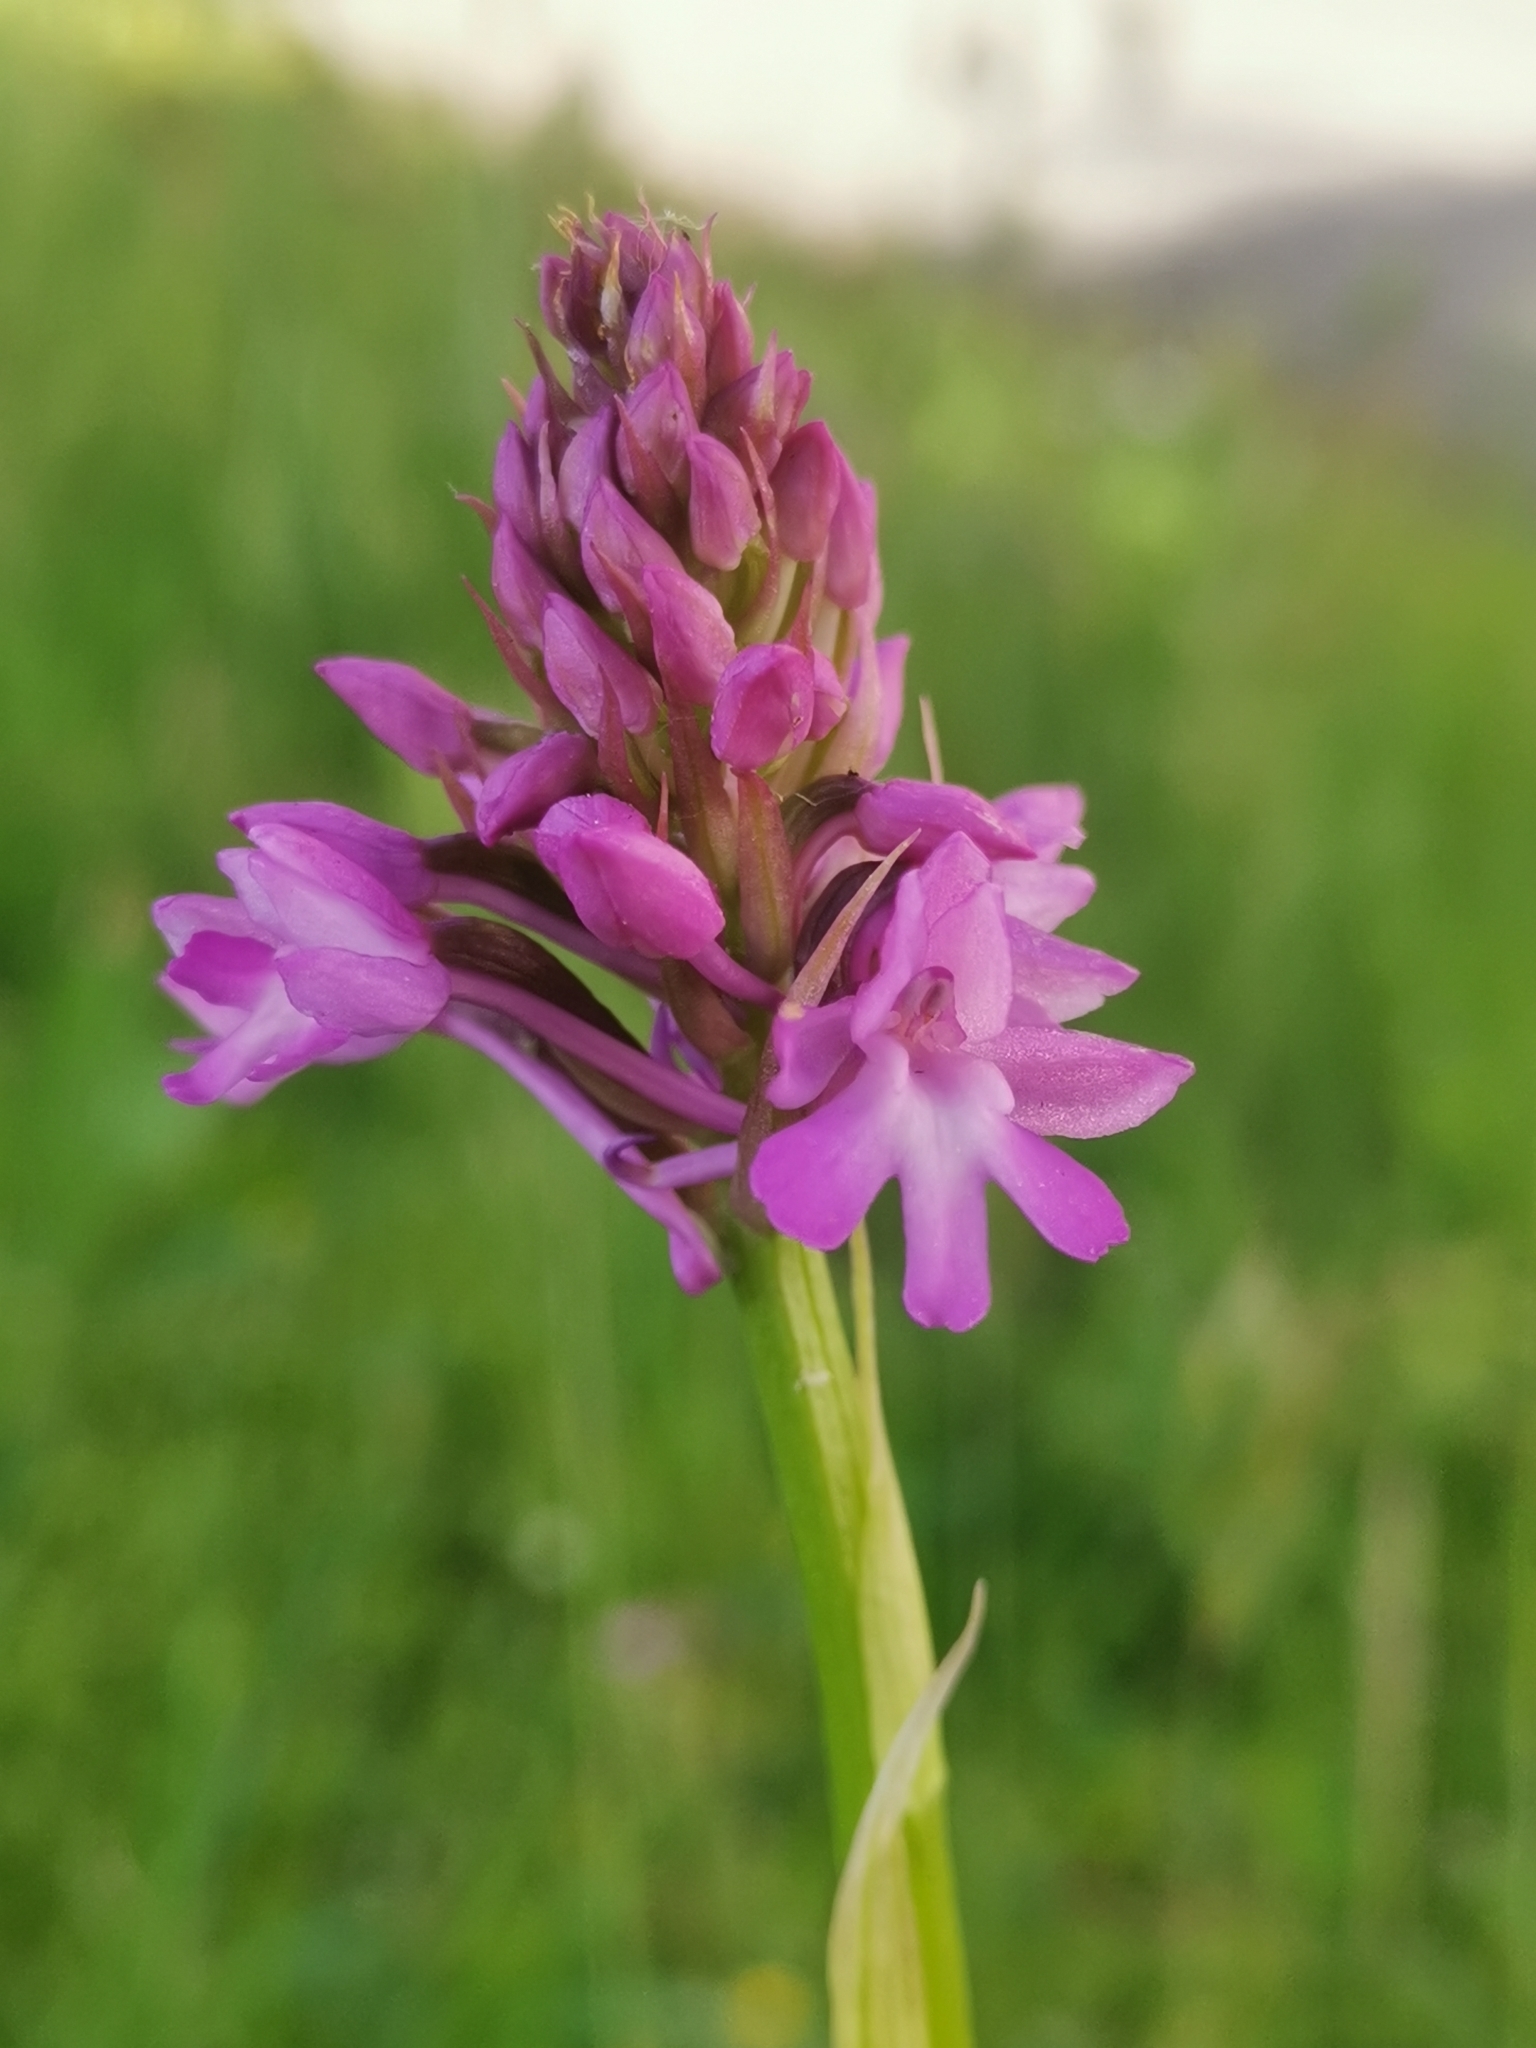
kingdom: Plantae
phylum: Tracheophyta
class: Liliopsida
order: Asparagales
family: Orchidaceae
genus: Anacamptis
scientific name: Anacamptis pyramidalis
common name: Pyramidal orchid
